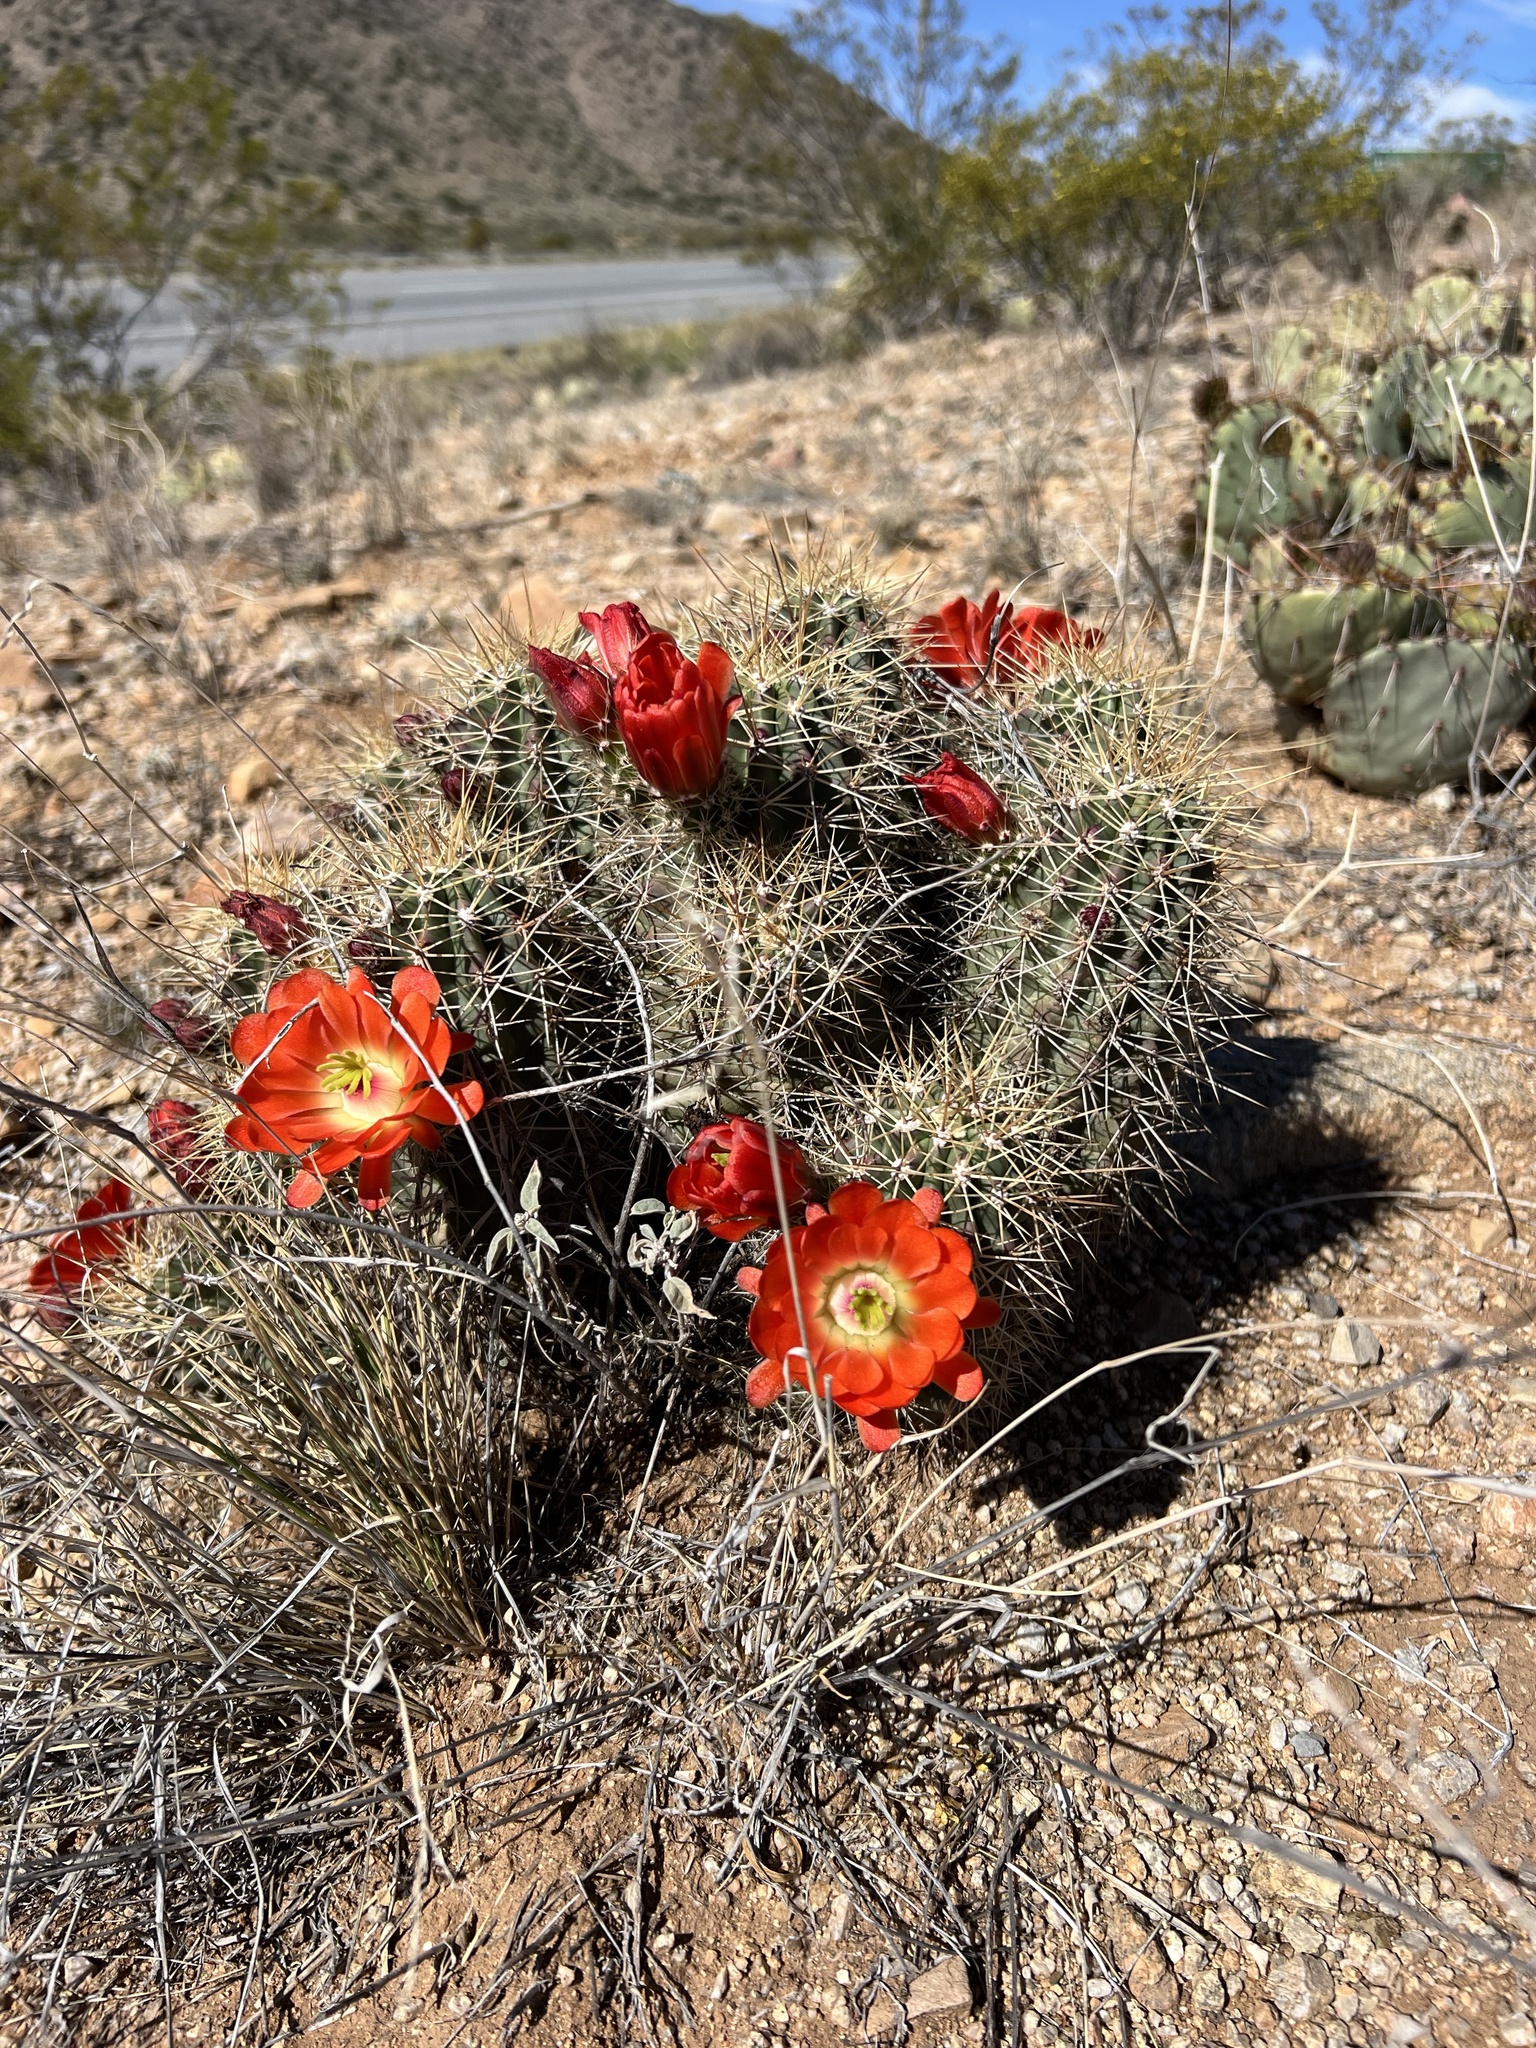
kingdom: Plantae
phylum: Tracheophyta
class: Magnoliopsida
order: Caryophyllales
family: Cactaceae
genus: Echinocereus
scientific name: Echinocereus coccineus
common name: Scarlet hedgehog cactus
